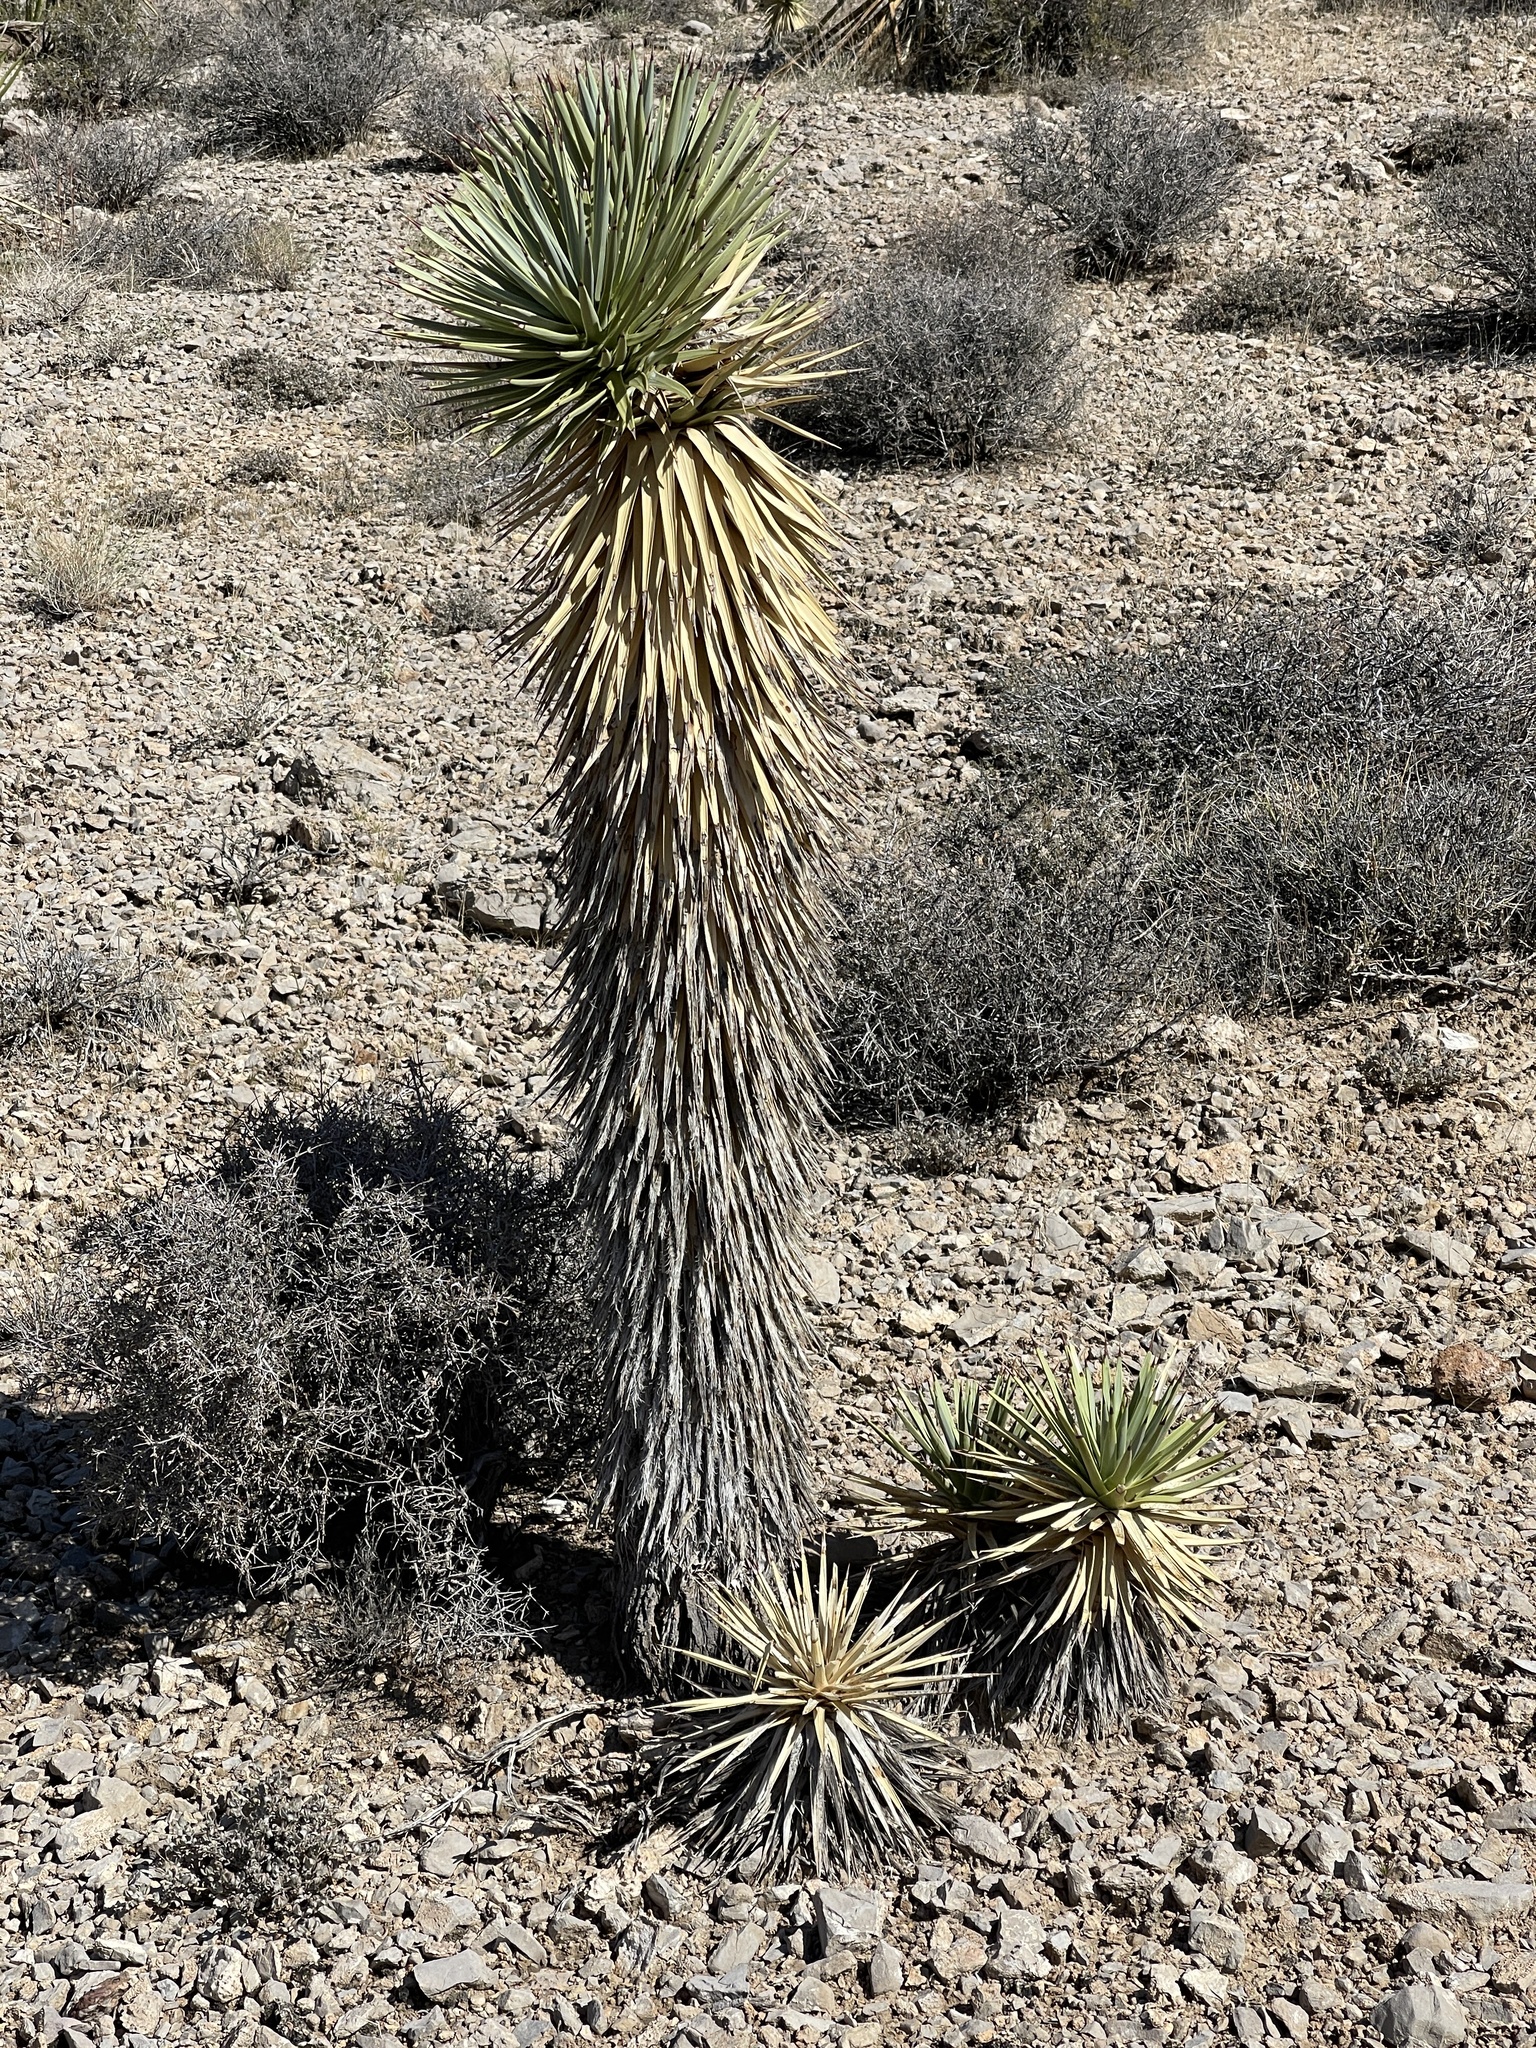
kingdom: Plantae
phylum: Tracheophyta
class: Liliopsida
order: Asparagales
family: Asparagaceae
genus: Yucca
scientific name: Yucca brevifolia
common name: Joshua tree
